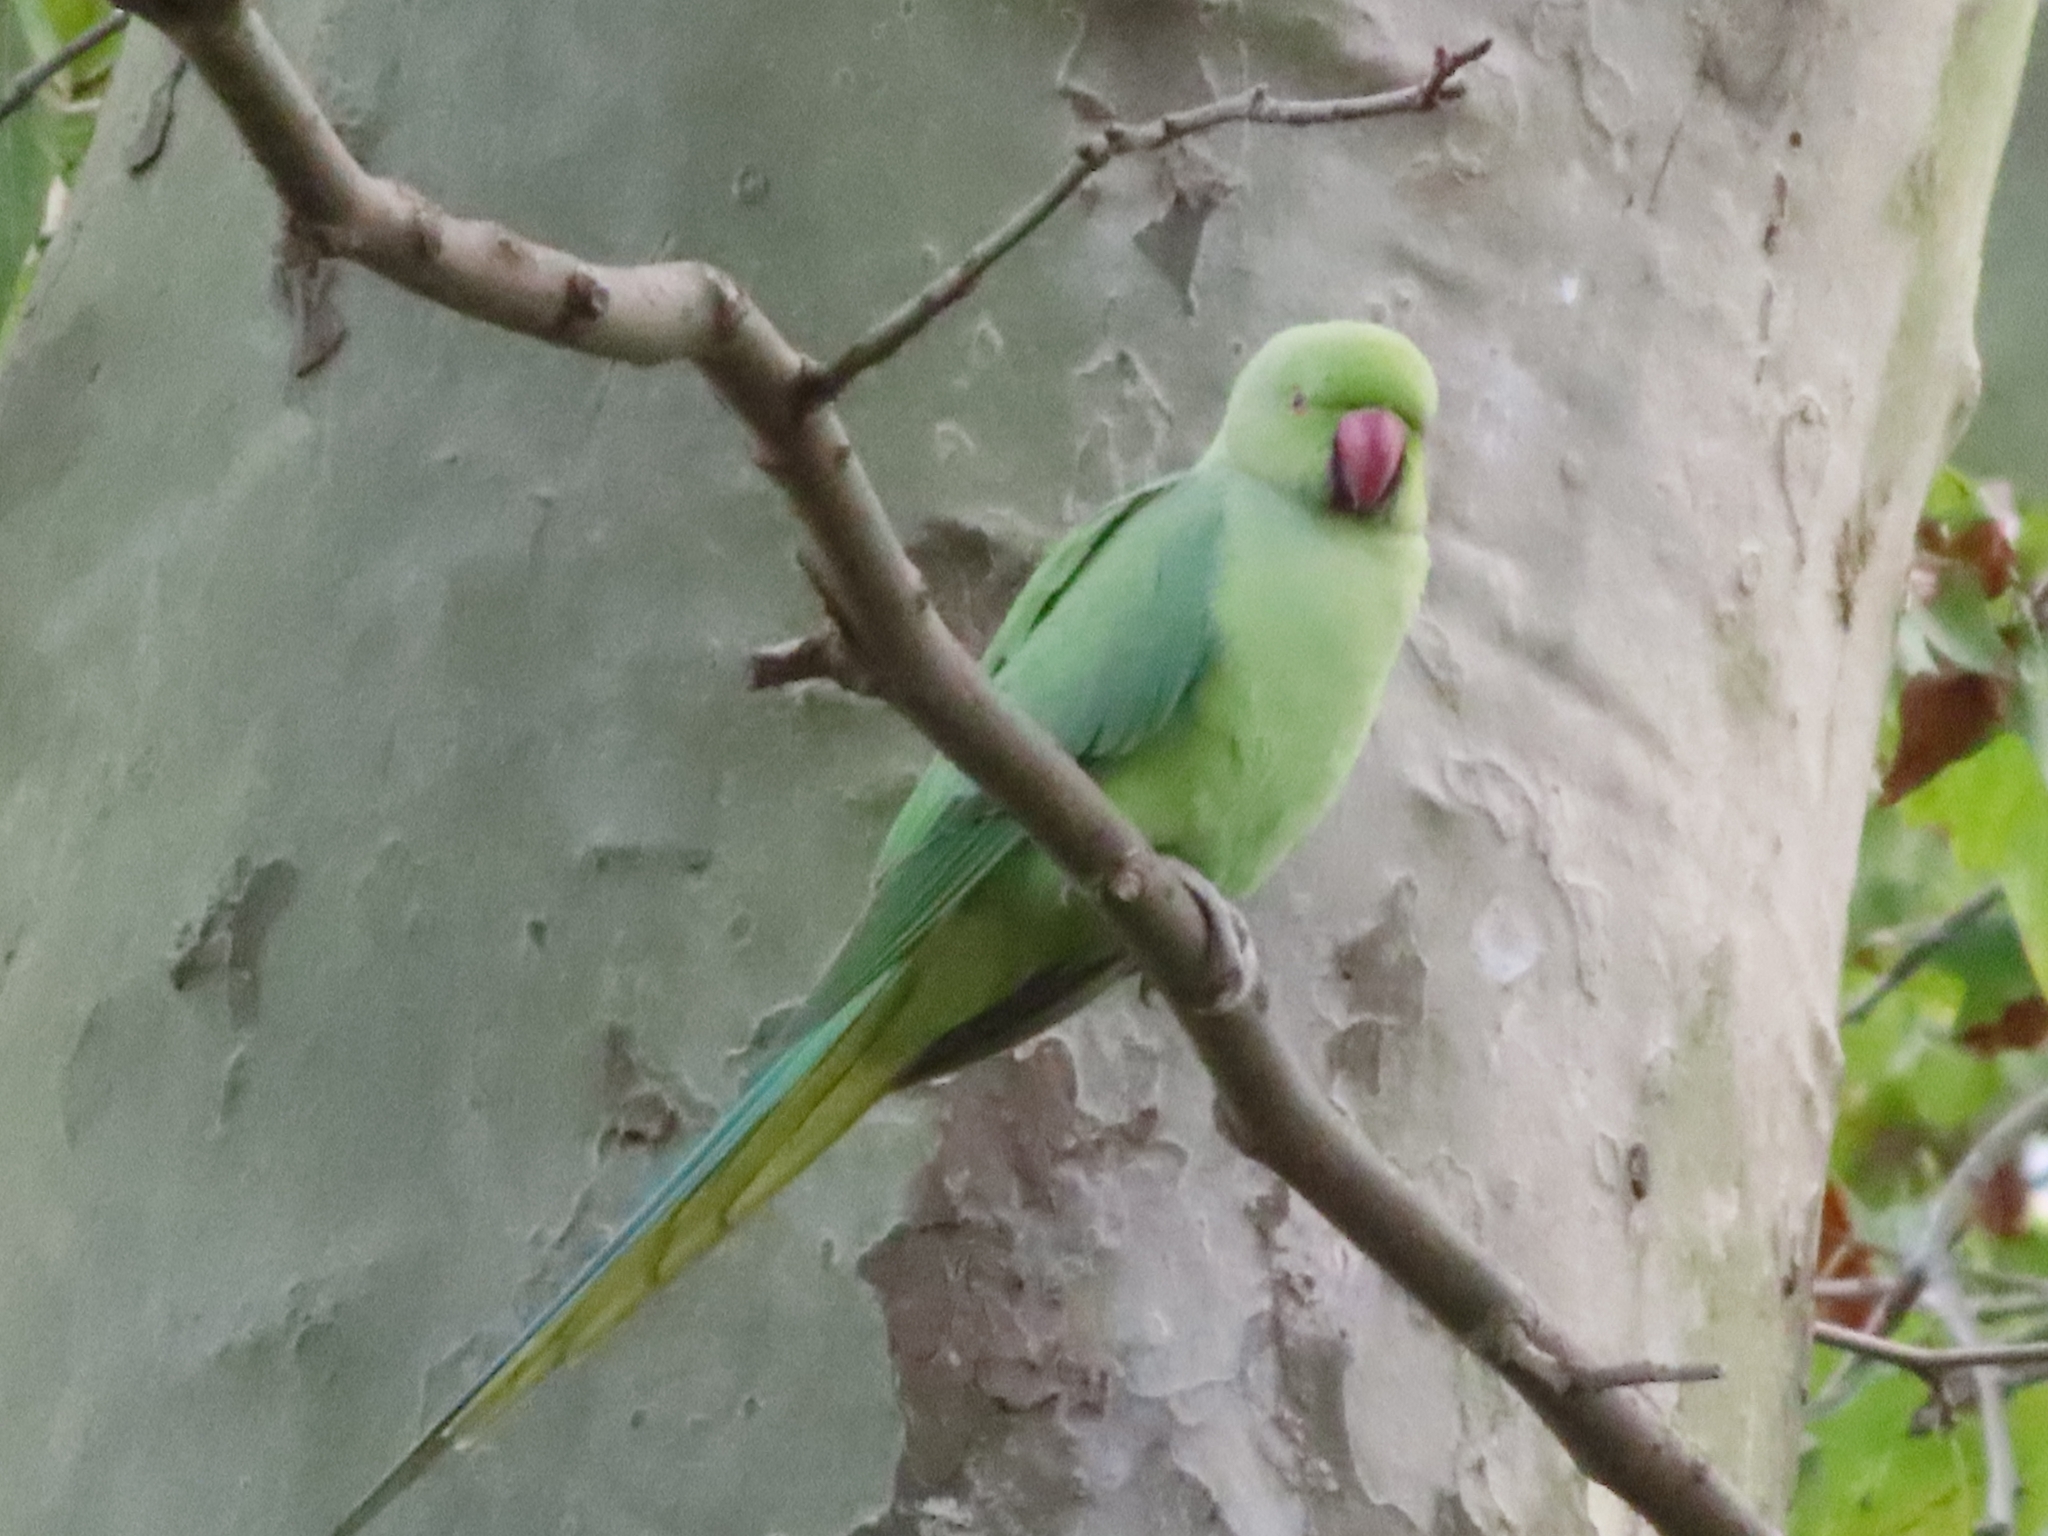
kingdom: Animalia
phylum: Chordata
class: Aves
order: Psittaciformes
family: Psittacidae
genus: Psittacula
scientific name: Psittacula krameri
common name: Rose-ringed parakeet
